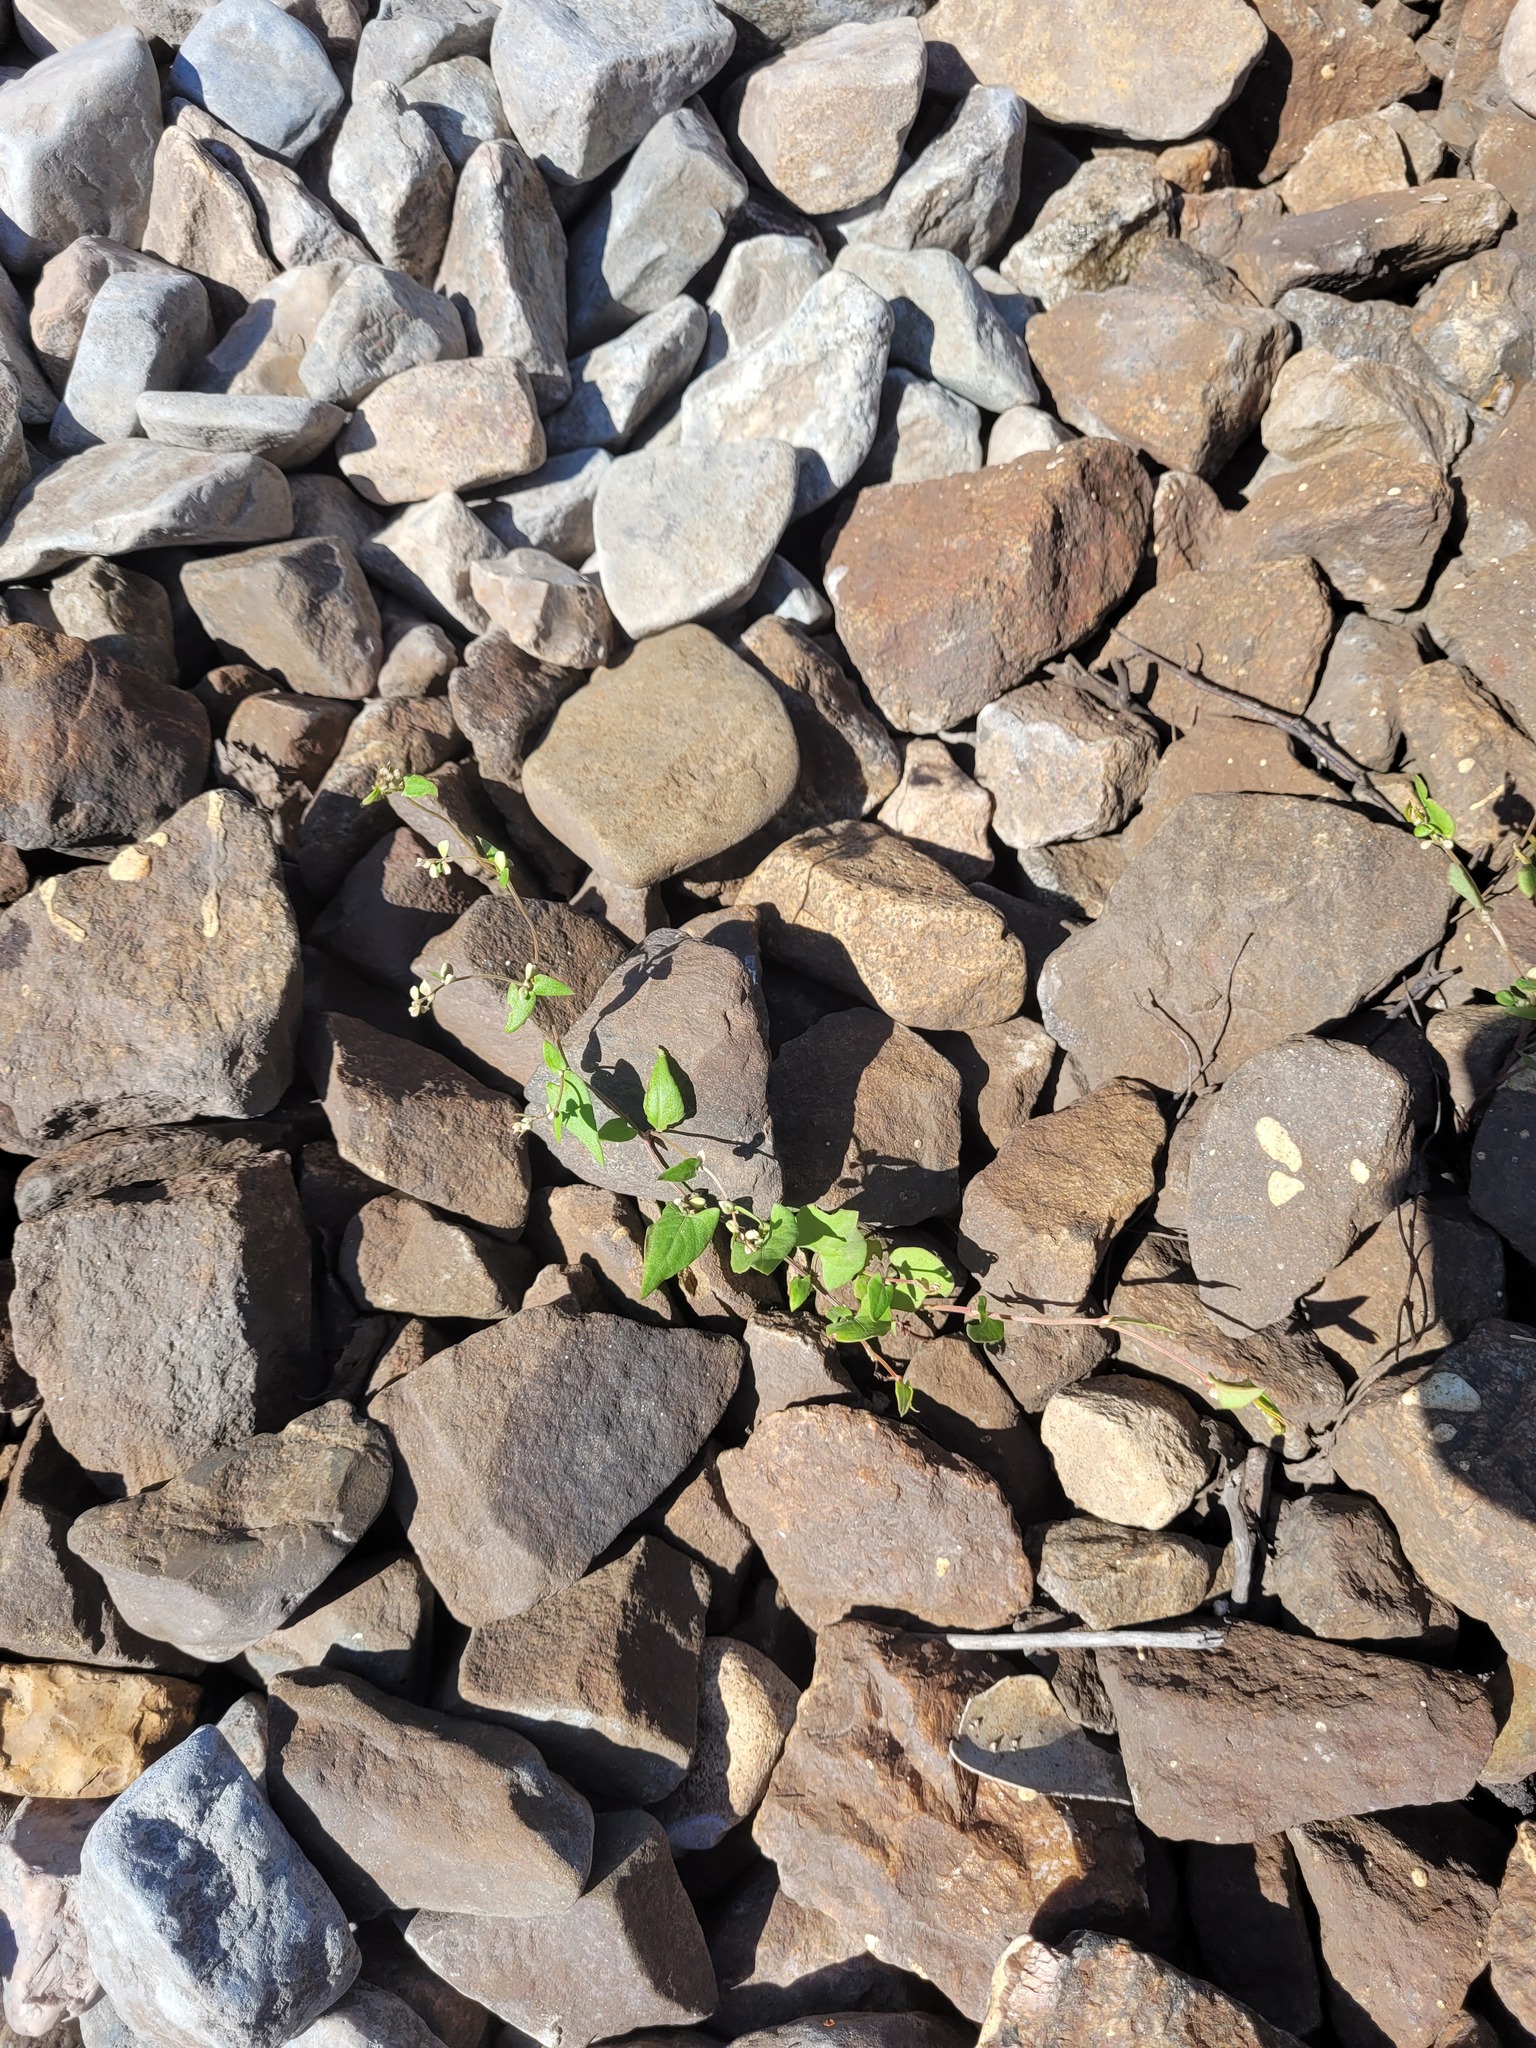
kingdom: Plantae
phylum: Tracheophyta
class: Magnoliopsida
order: Caryophyllales
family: Polygonaceae
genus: Fallopia
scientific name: Fallopia convolvulus
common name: Black bindweed
